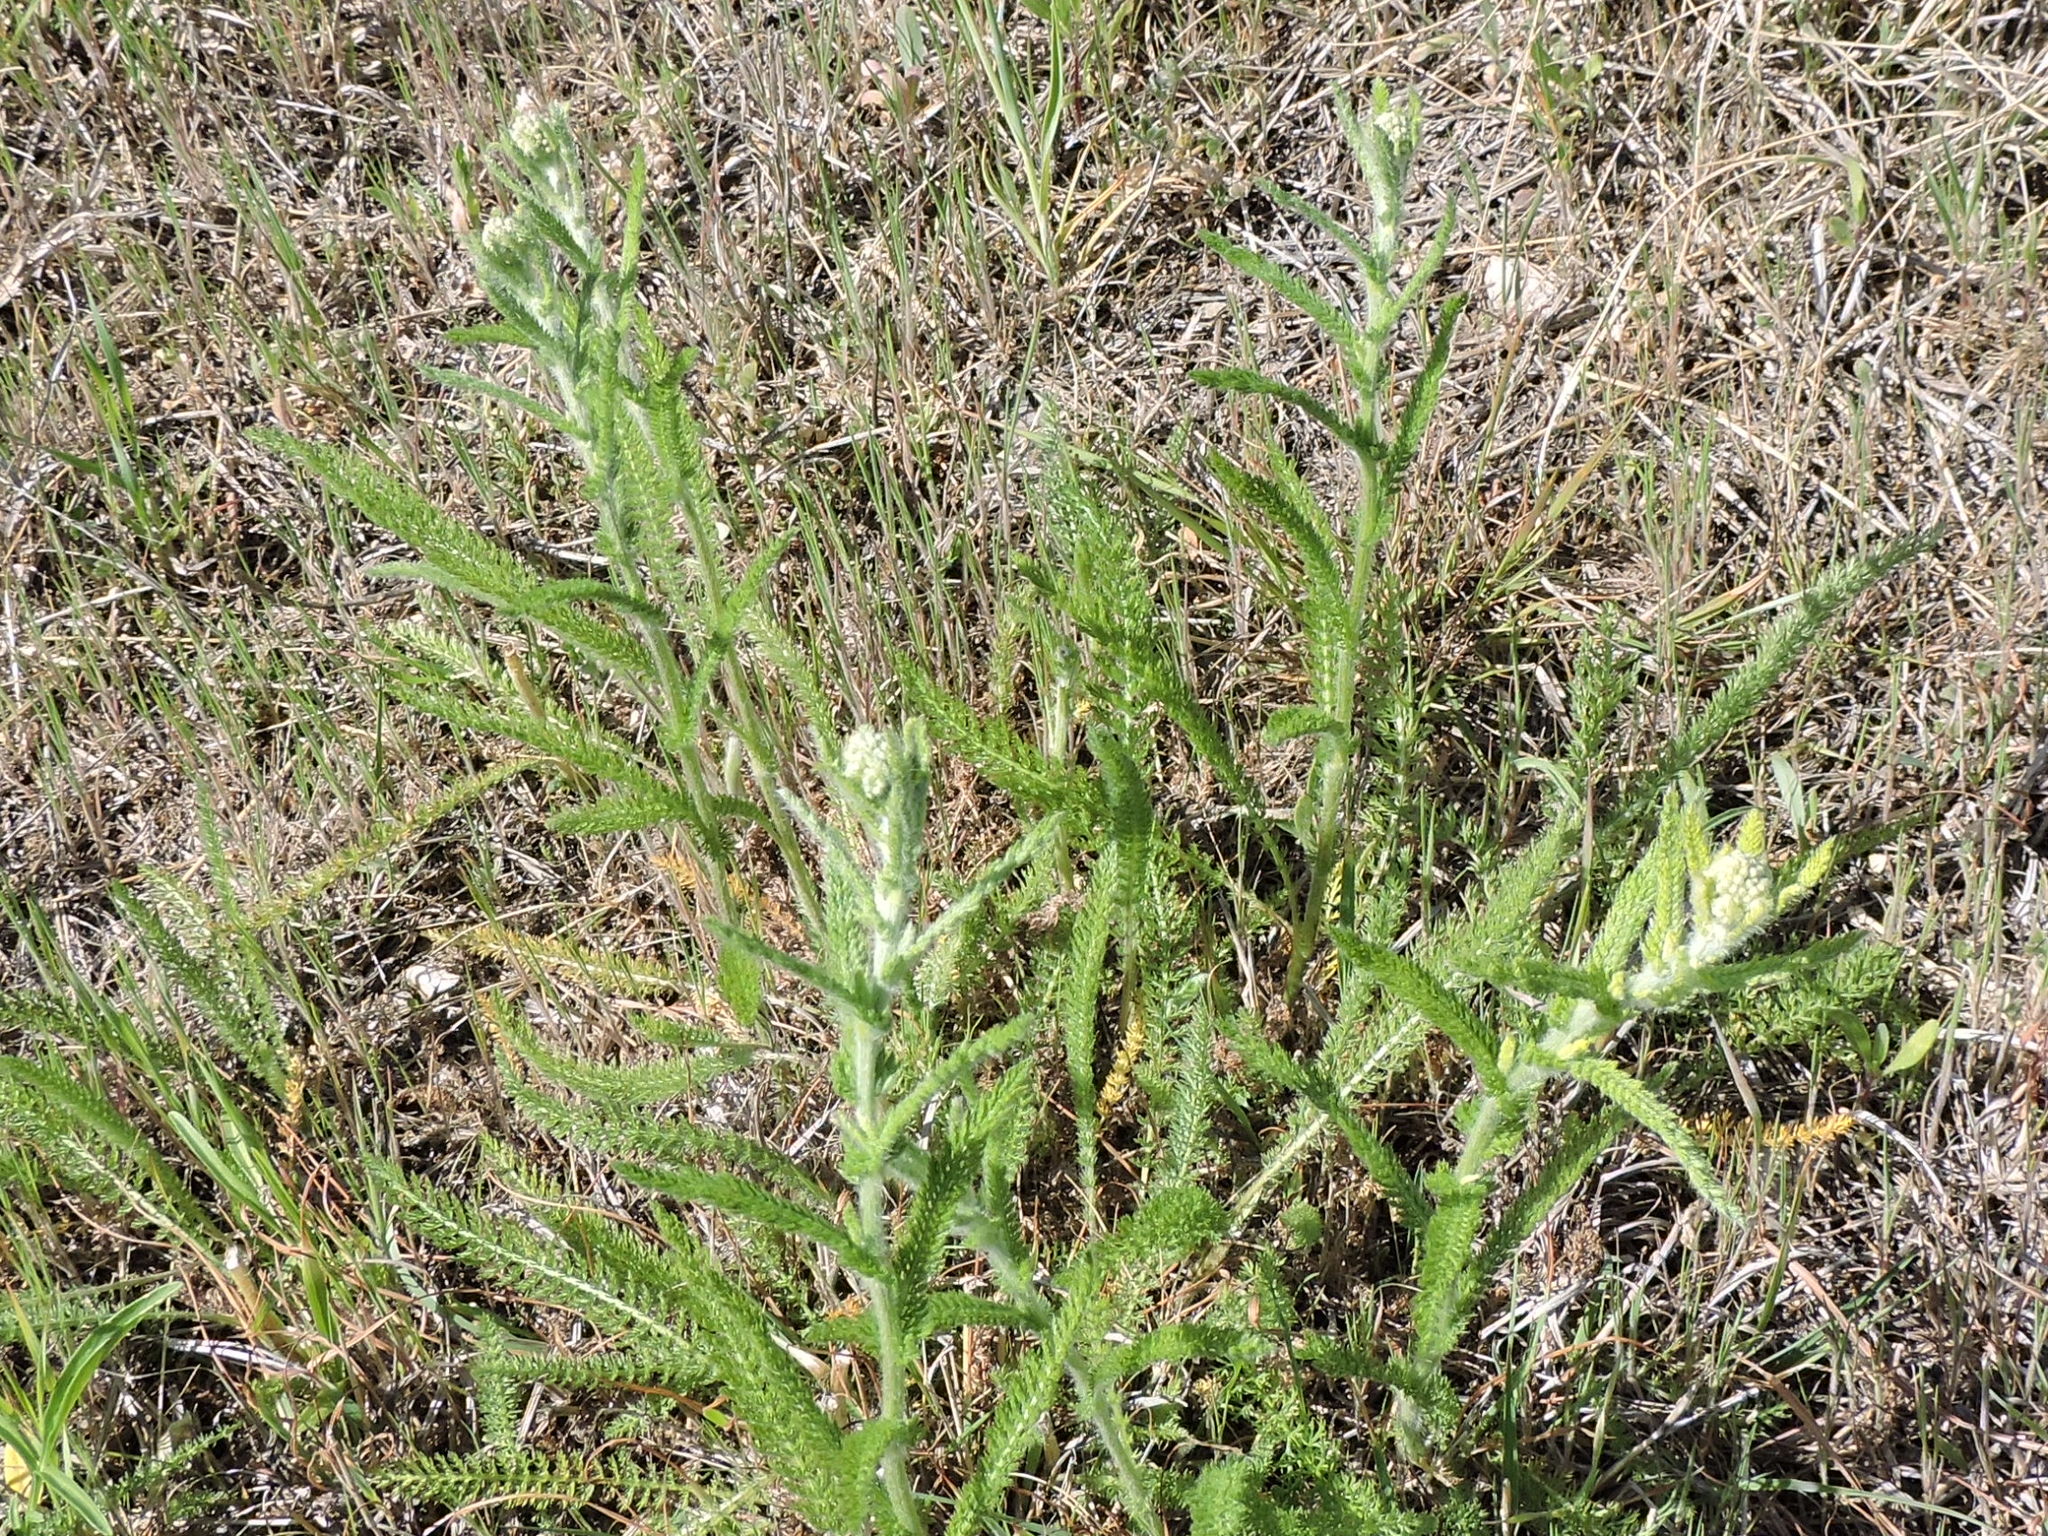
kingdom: Plantae
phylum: Tracheophyta
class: Magnoliopsida
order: Asterales
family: Asteraceae
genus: Achillea
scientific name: Achillea millefolium
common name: Yarrow
